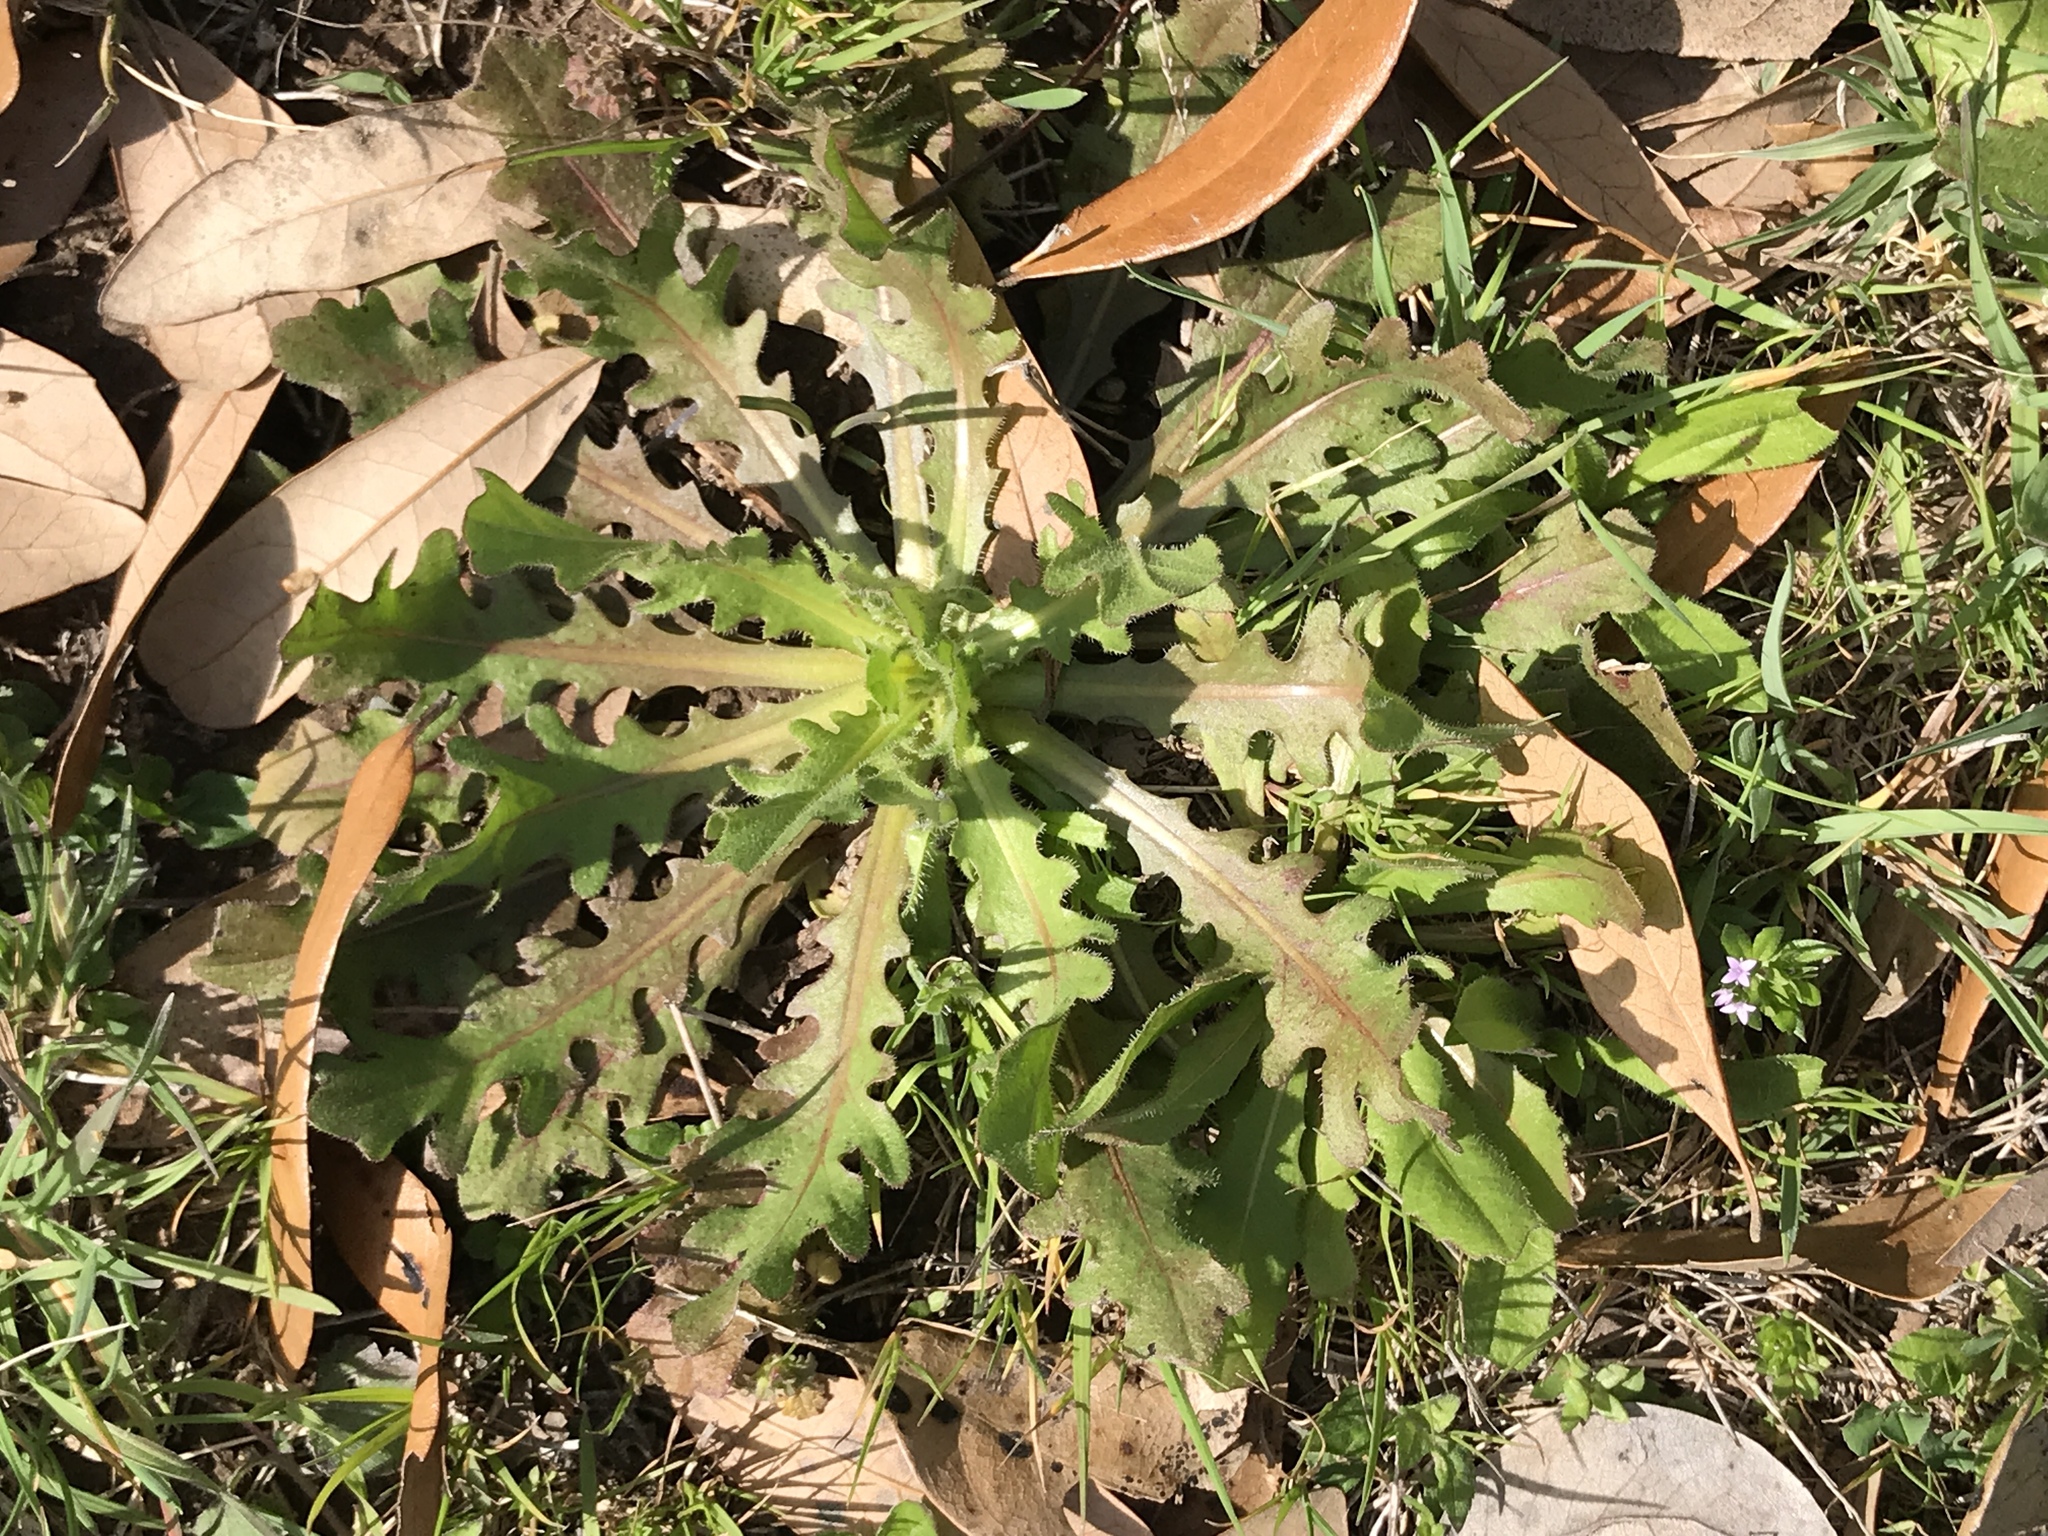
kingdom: Plantae
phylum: Tracheophyta
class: Magnoliopsida
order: Asterales
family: Asteraceae
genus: Hypochaeris
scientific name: Hypochaeris radicata
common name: Flatweed
